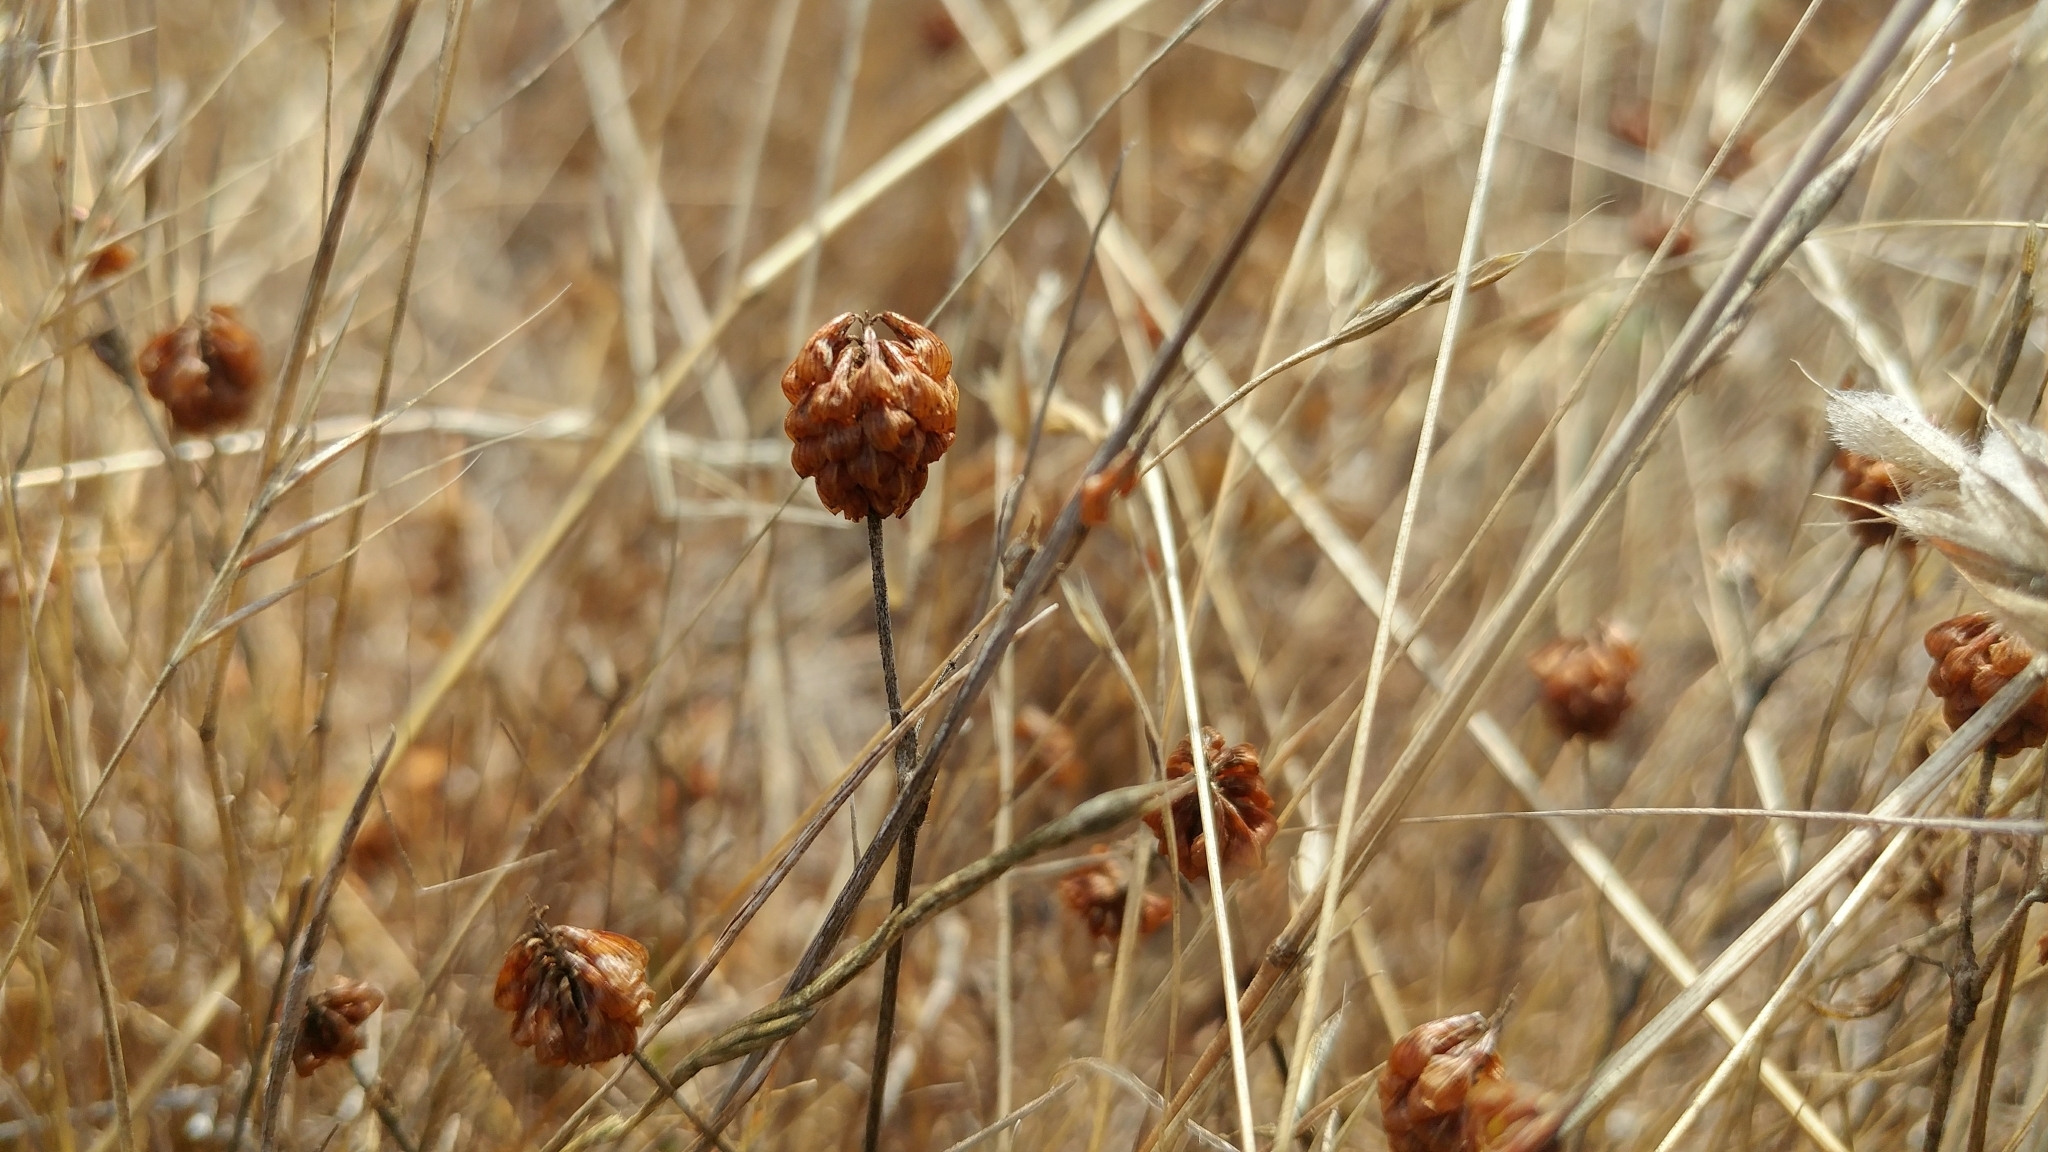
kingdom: Plantae
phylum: Tracheophyta
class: Magnoliopsida
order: Fabales
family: Fabaceae
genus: Trifolium
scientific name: Trifolium campestre
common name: Field clover
